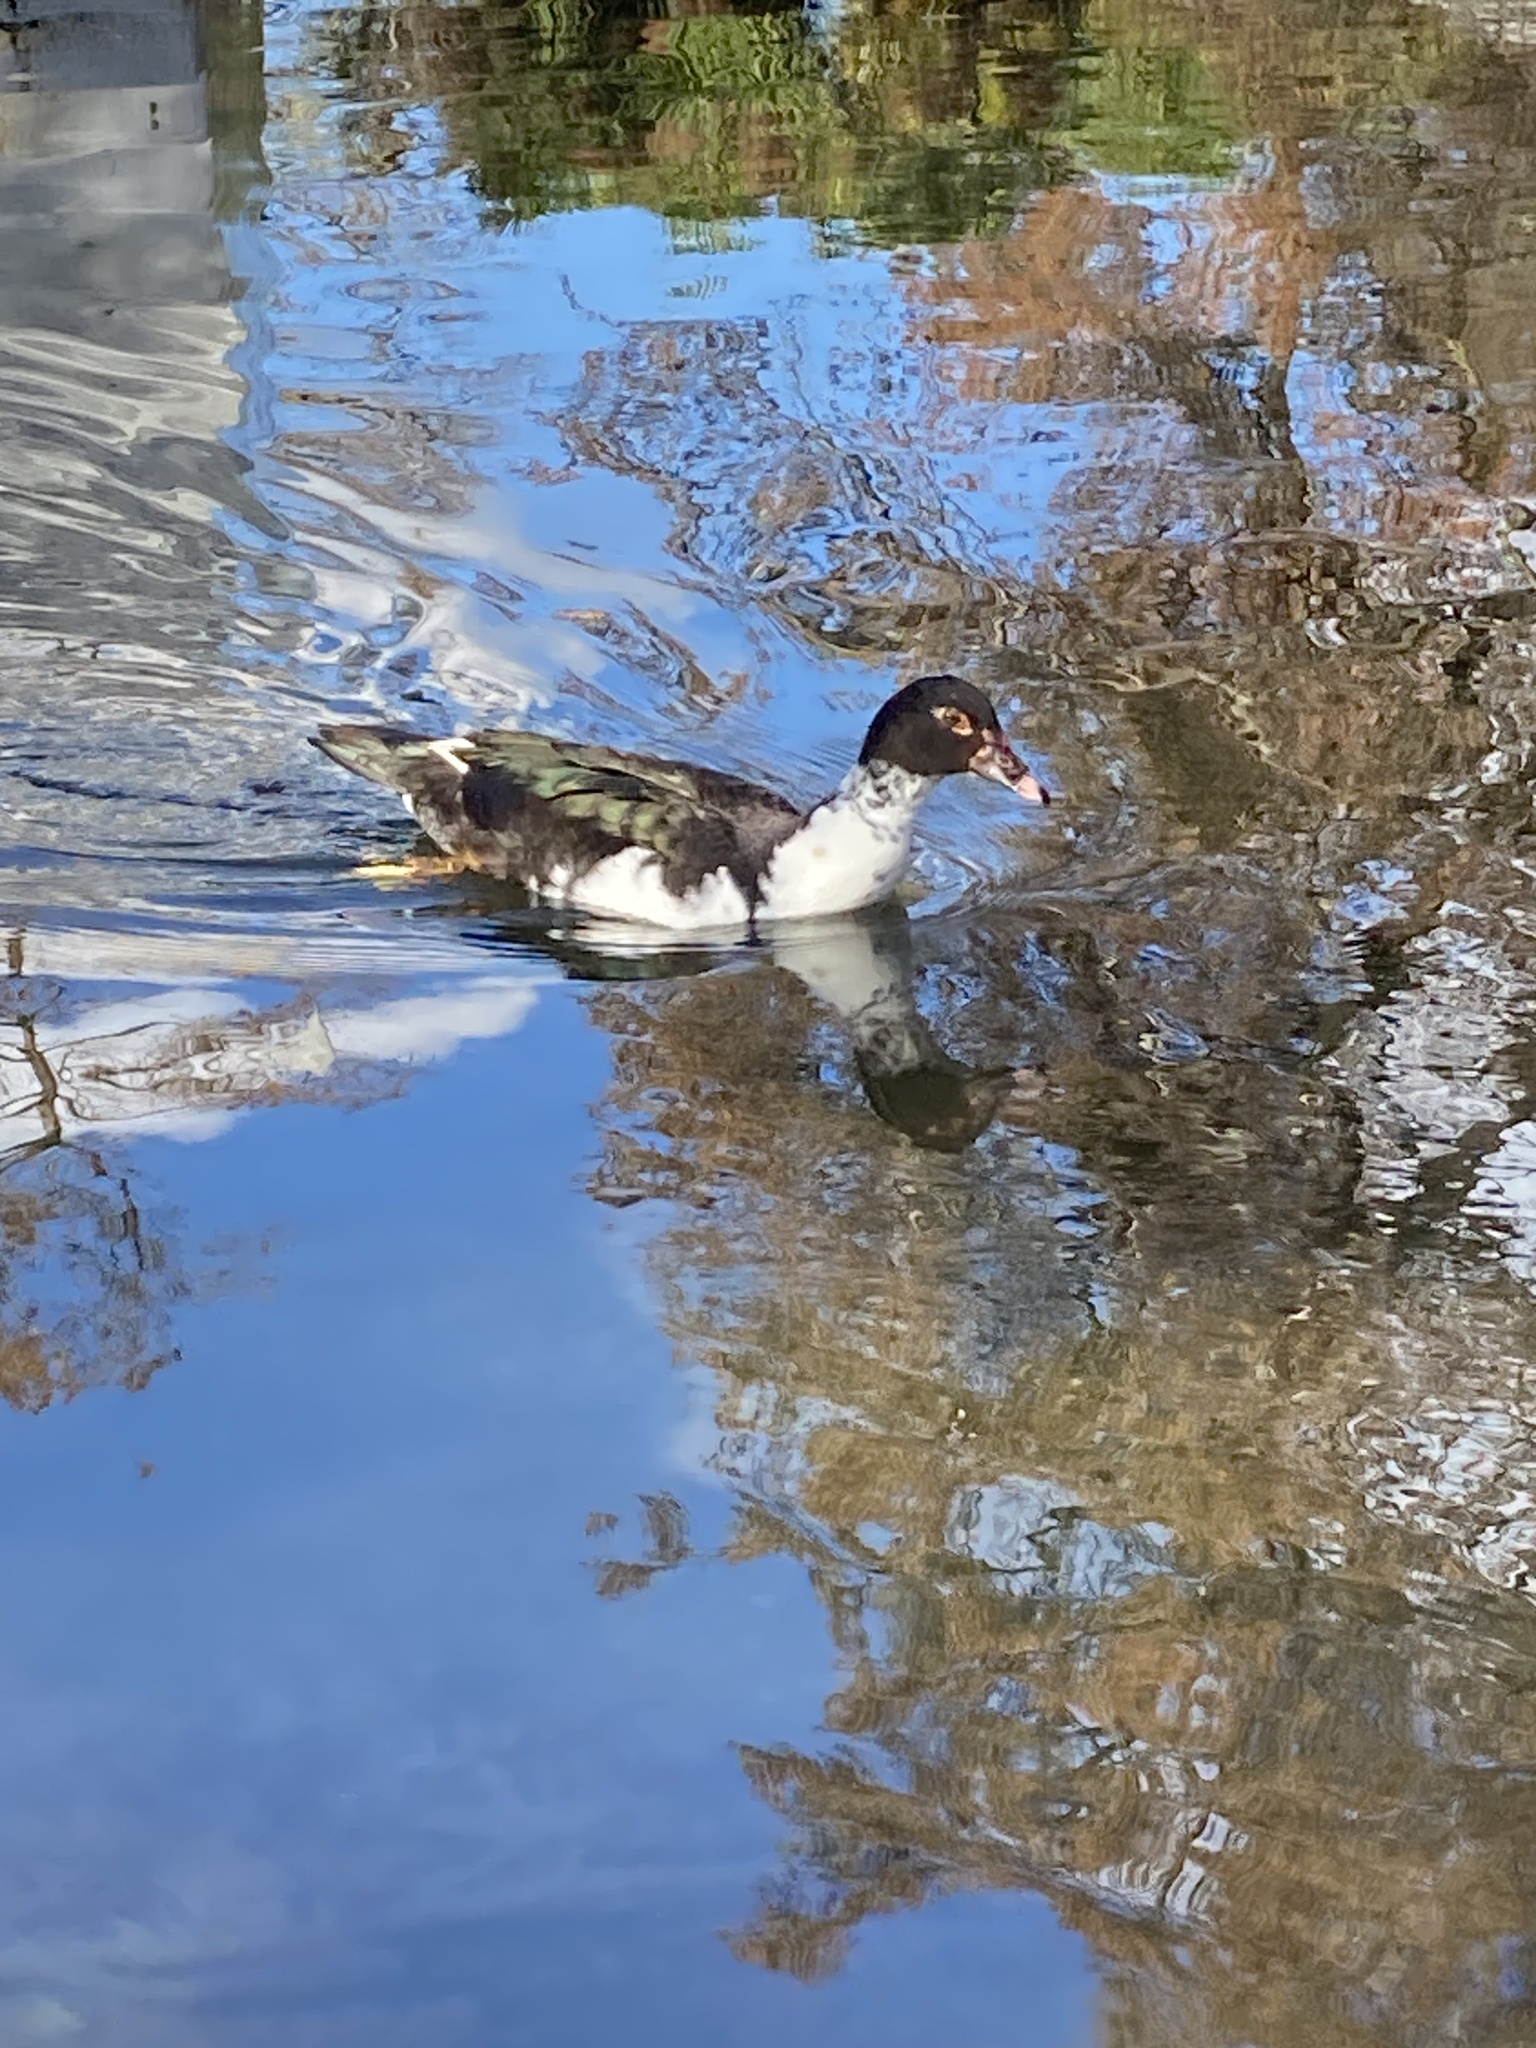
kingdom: Animalia
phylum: Chordata
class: Aves
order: Anseriformes
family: Anatidae
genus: Cairina
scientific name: Cairina moschata
